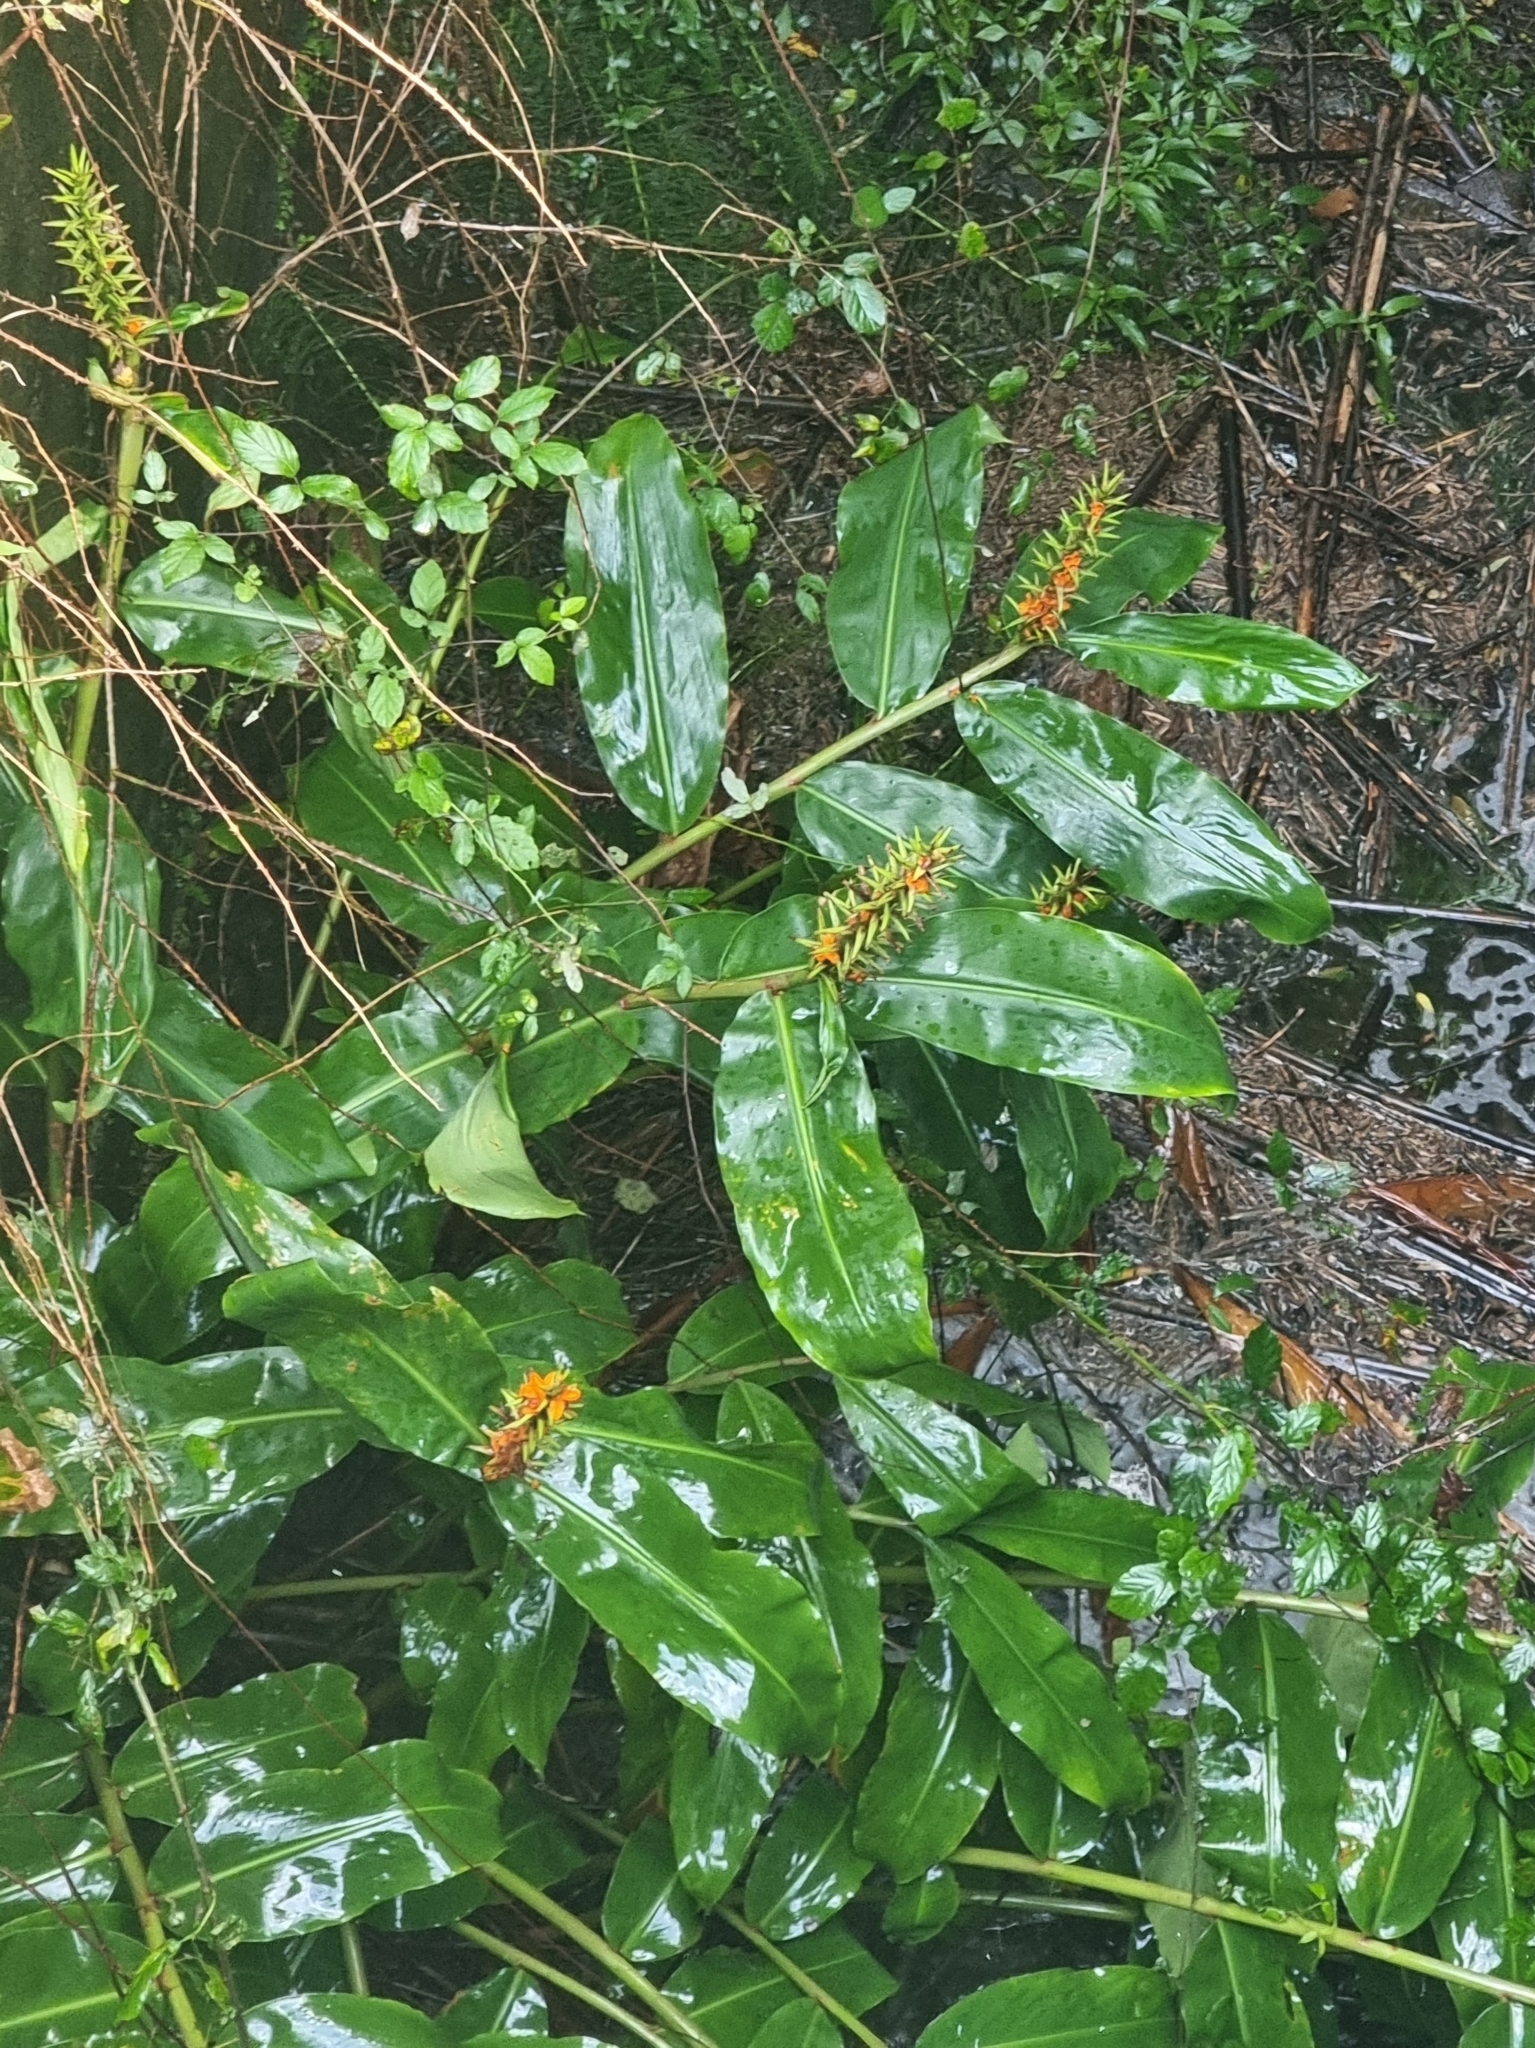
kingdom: Plantae
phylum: Tracheophyta
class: Liliopsida
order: Zingiberales
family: Zingiberaceae
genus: Hedychium
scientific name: Hedychium gardnerianum
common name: Himalayan ginger
